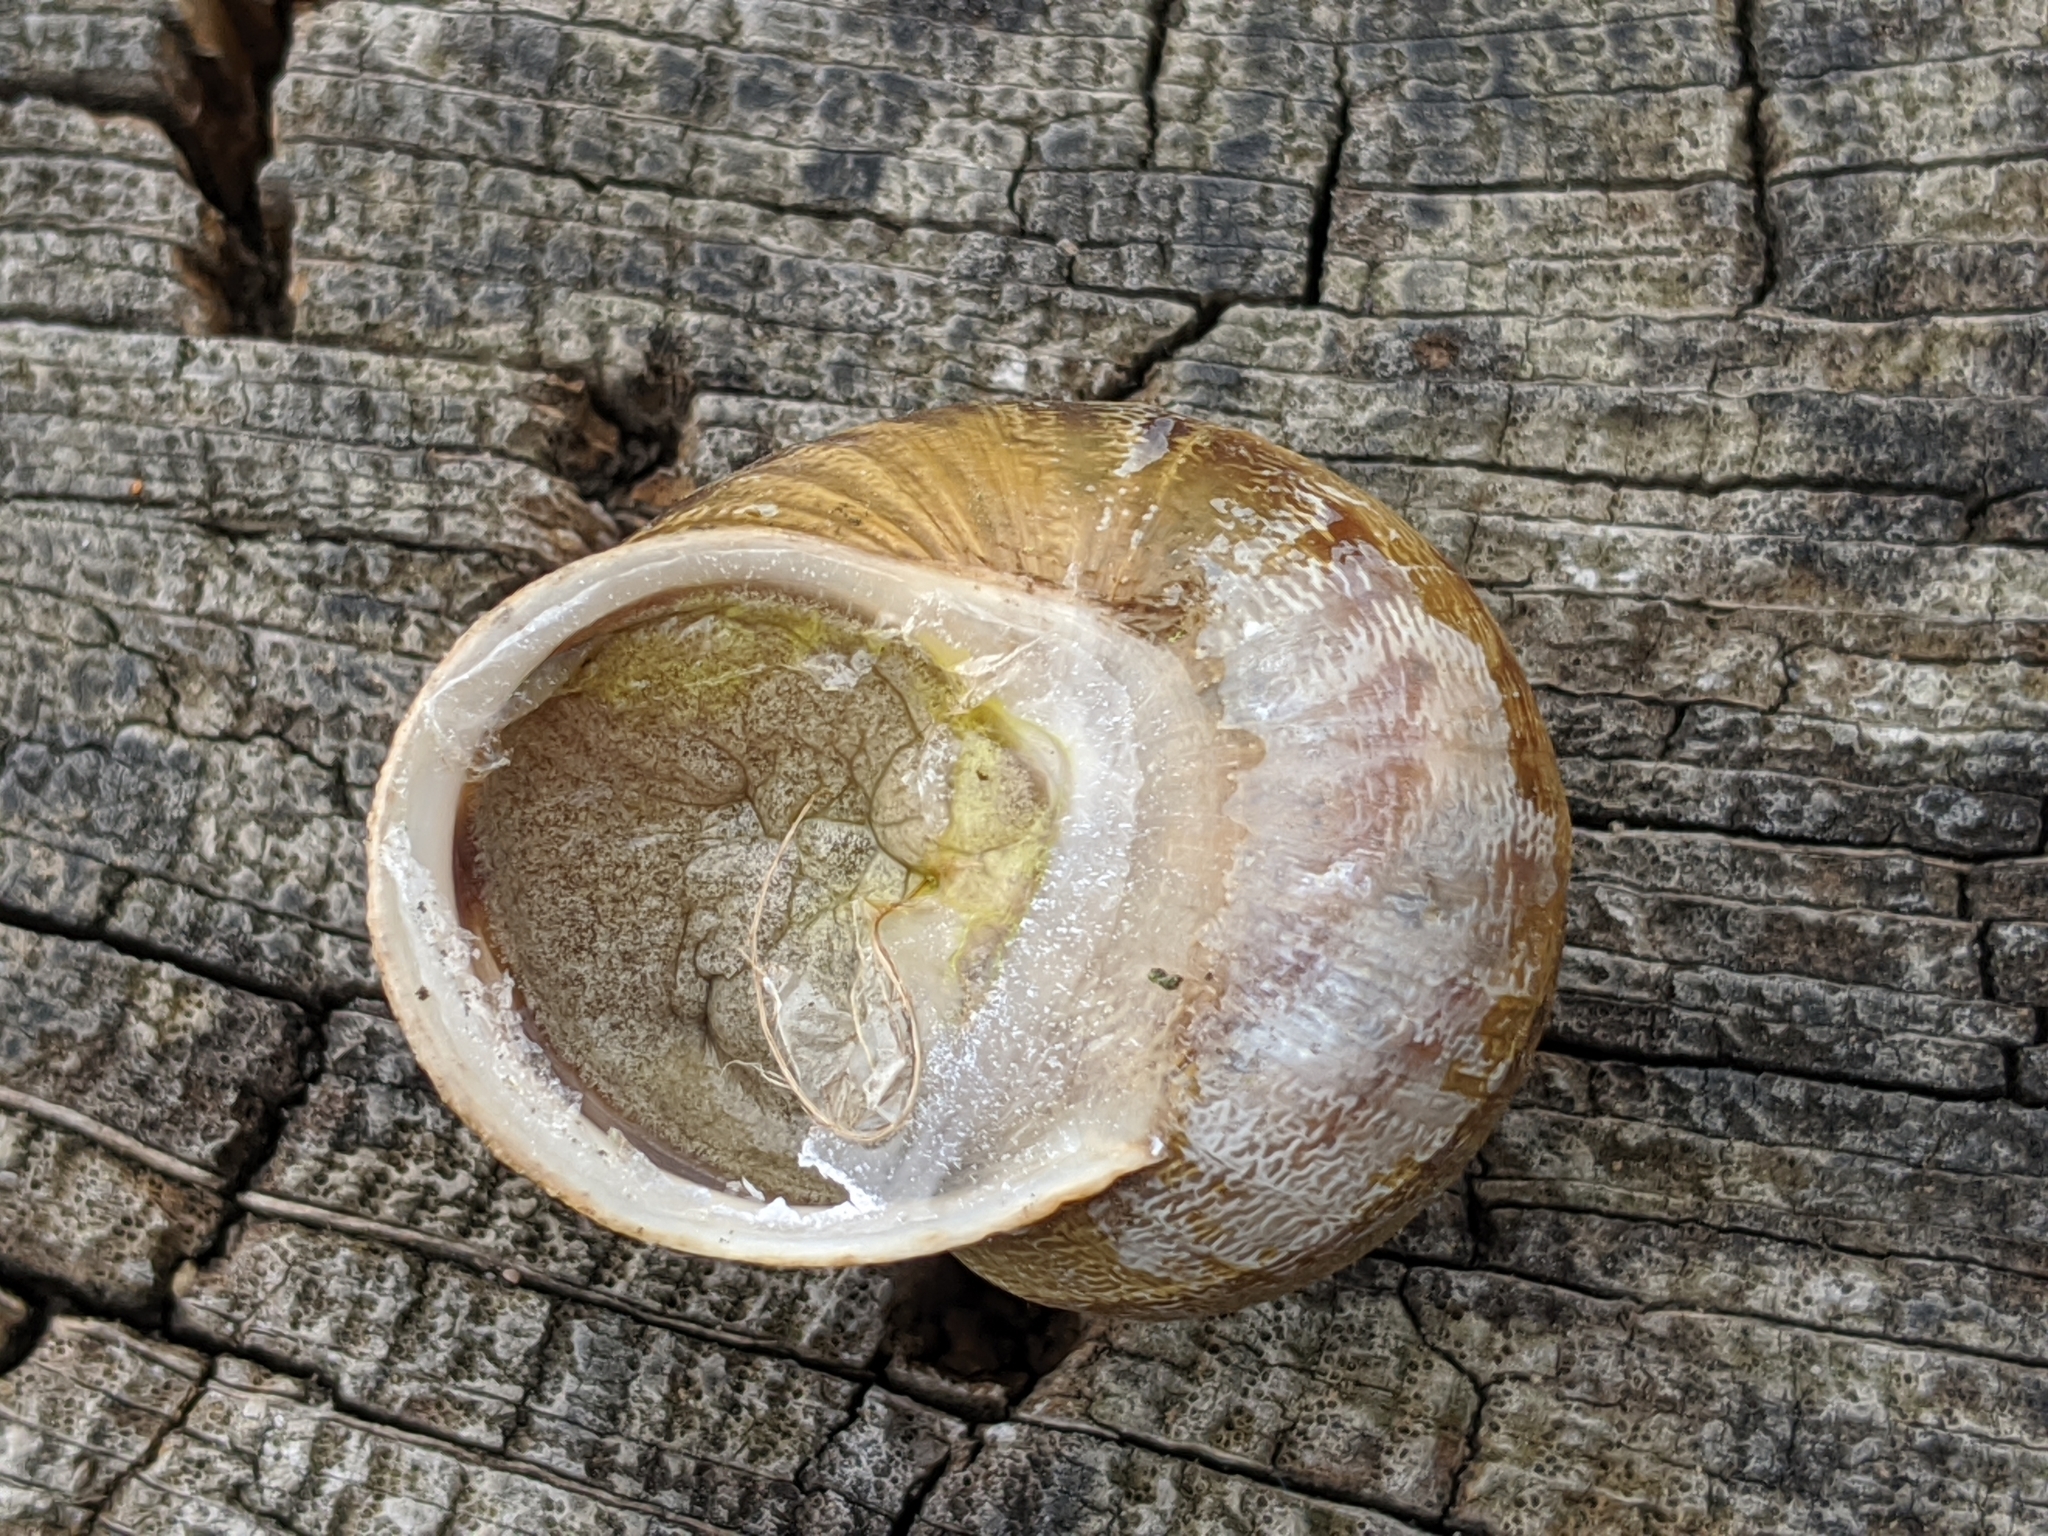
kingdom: Animalia
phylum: Mollusca
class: Gastropoda
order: Stylommatophora
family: Helicidae
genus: Cornu
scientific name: Cornu aspersum
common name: Brown garden snail
